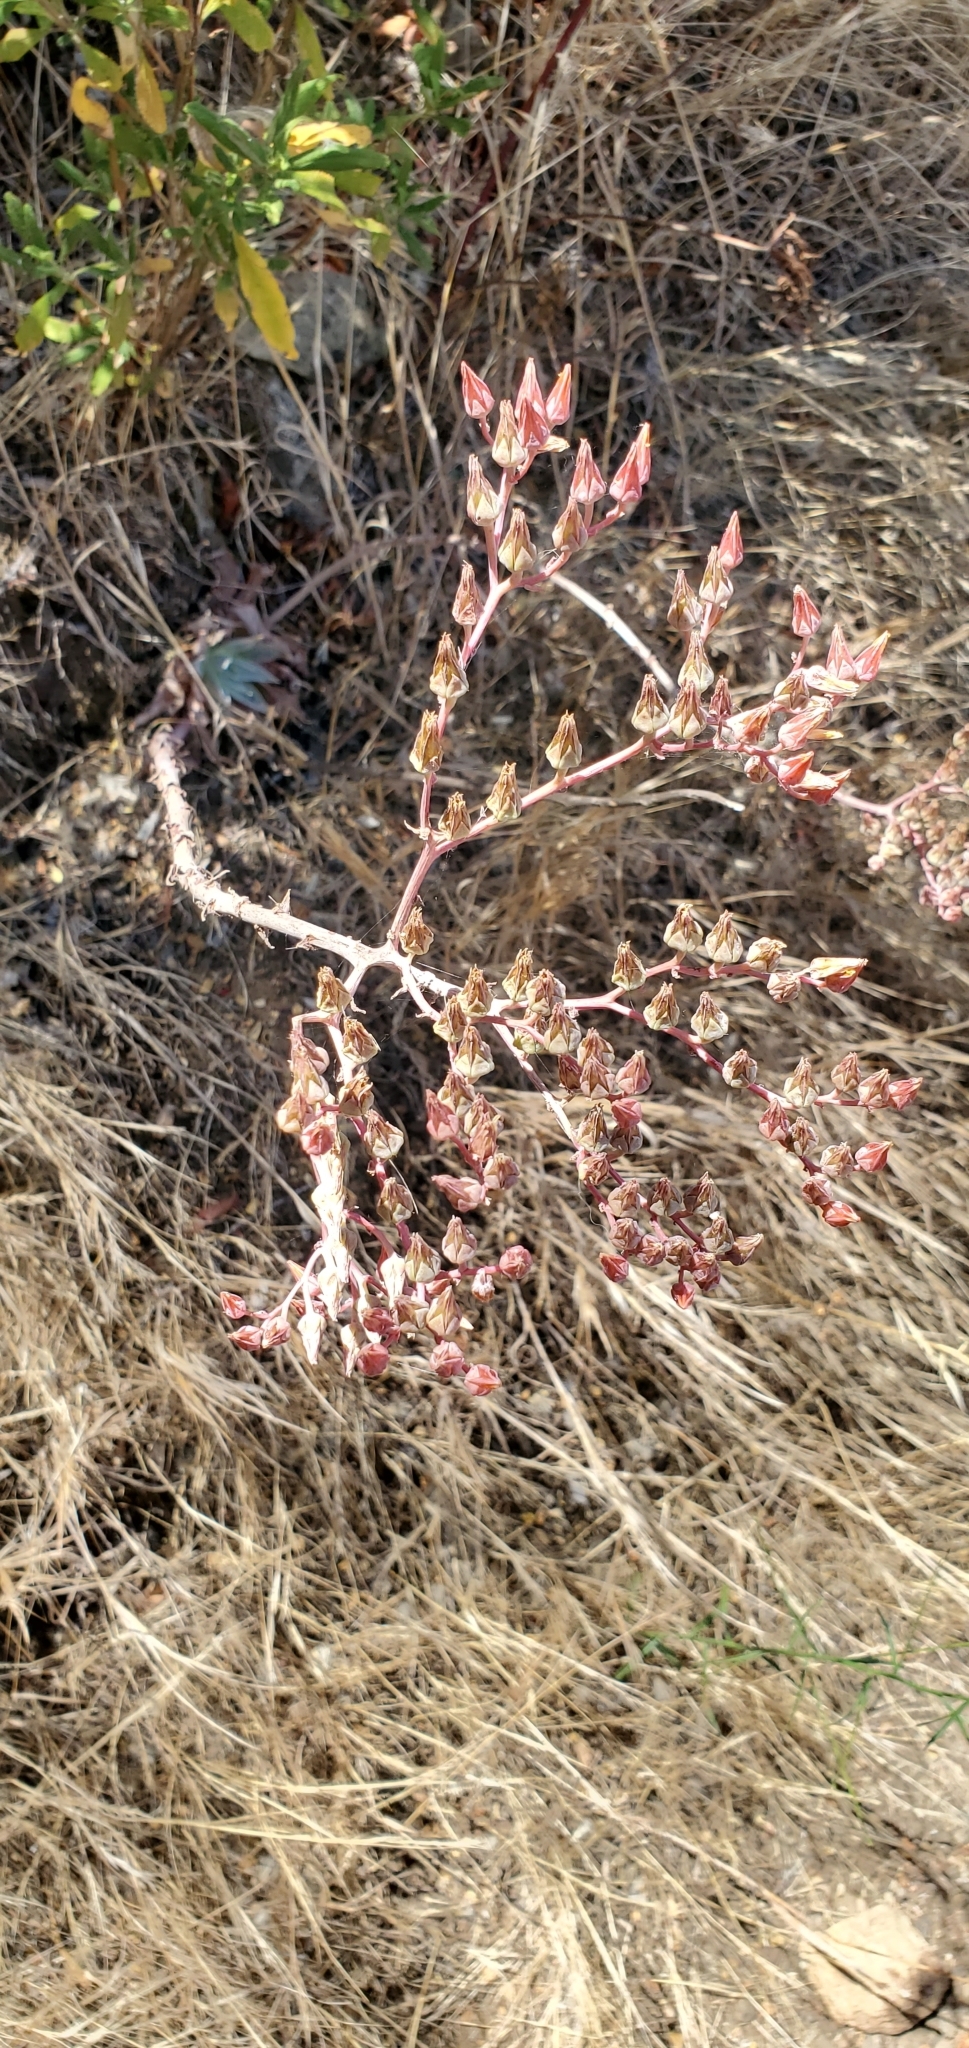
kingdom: Plantae
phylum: Tracheophyta
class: Magnoliopsida
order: Saxifragales
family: Crassulaceae
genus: Dudleya
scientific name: Dudleya lanceolata
